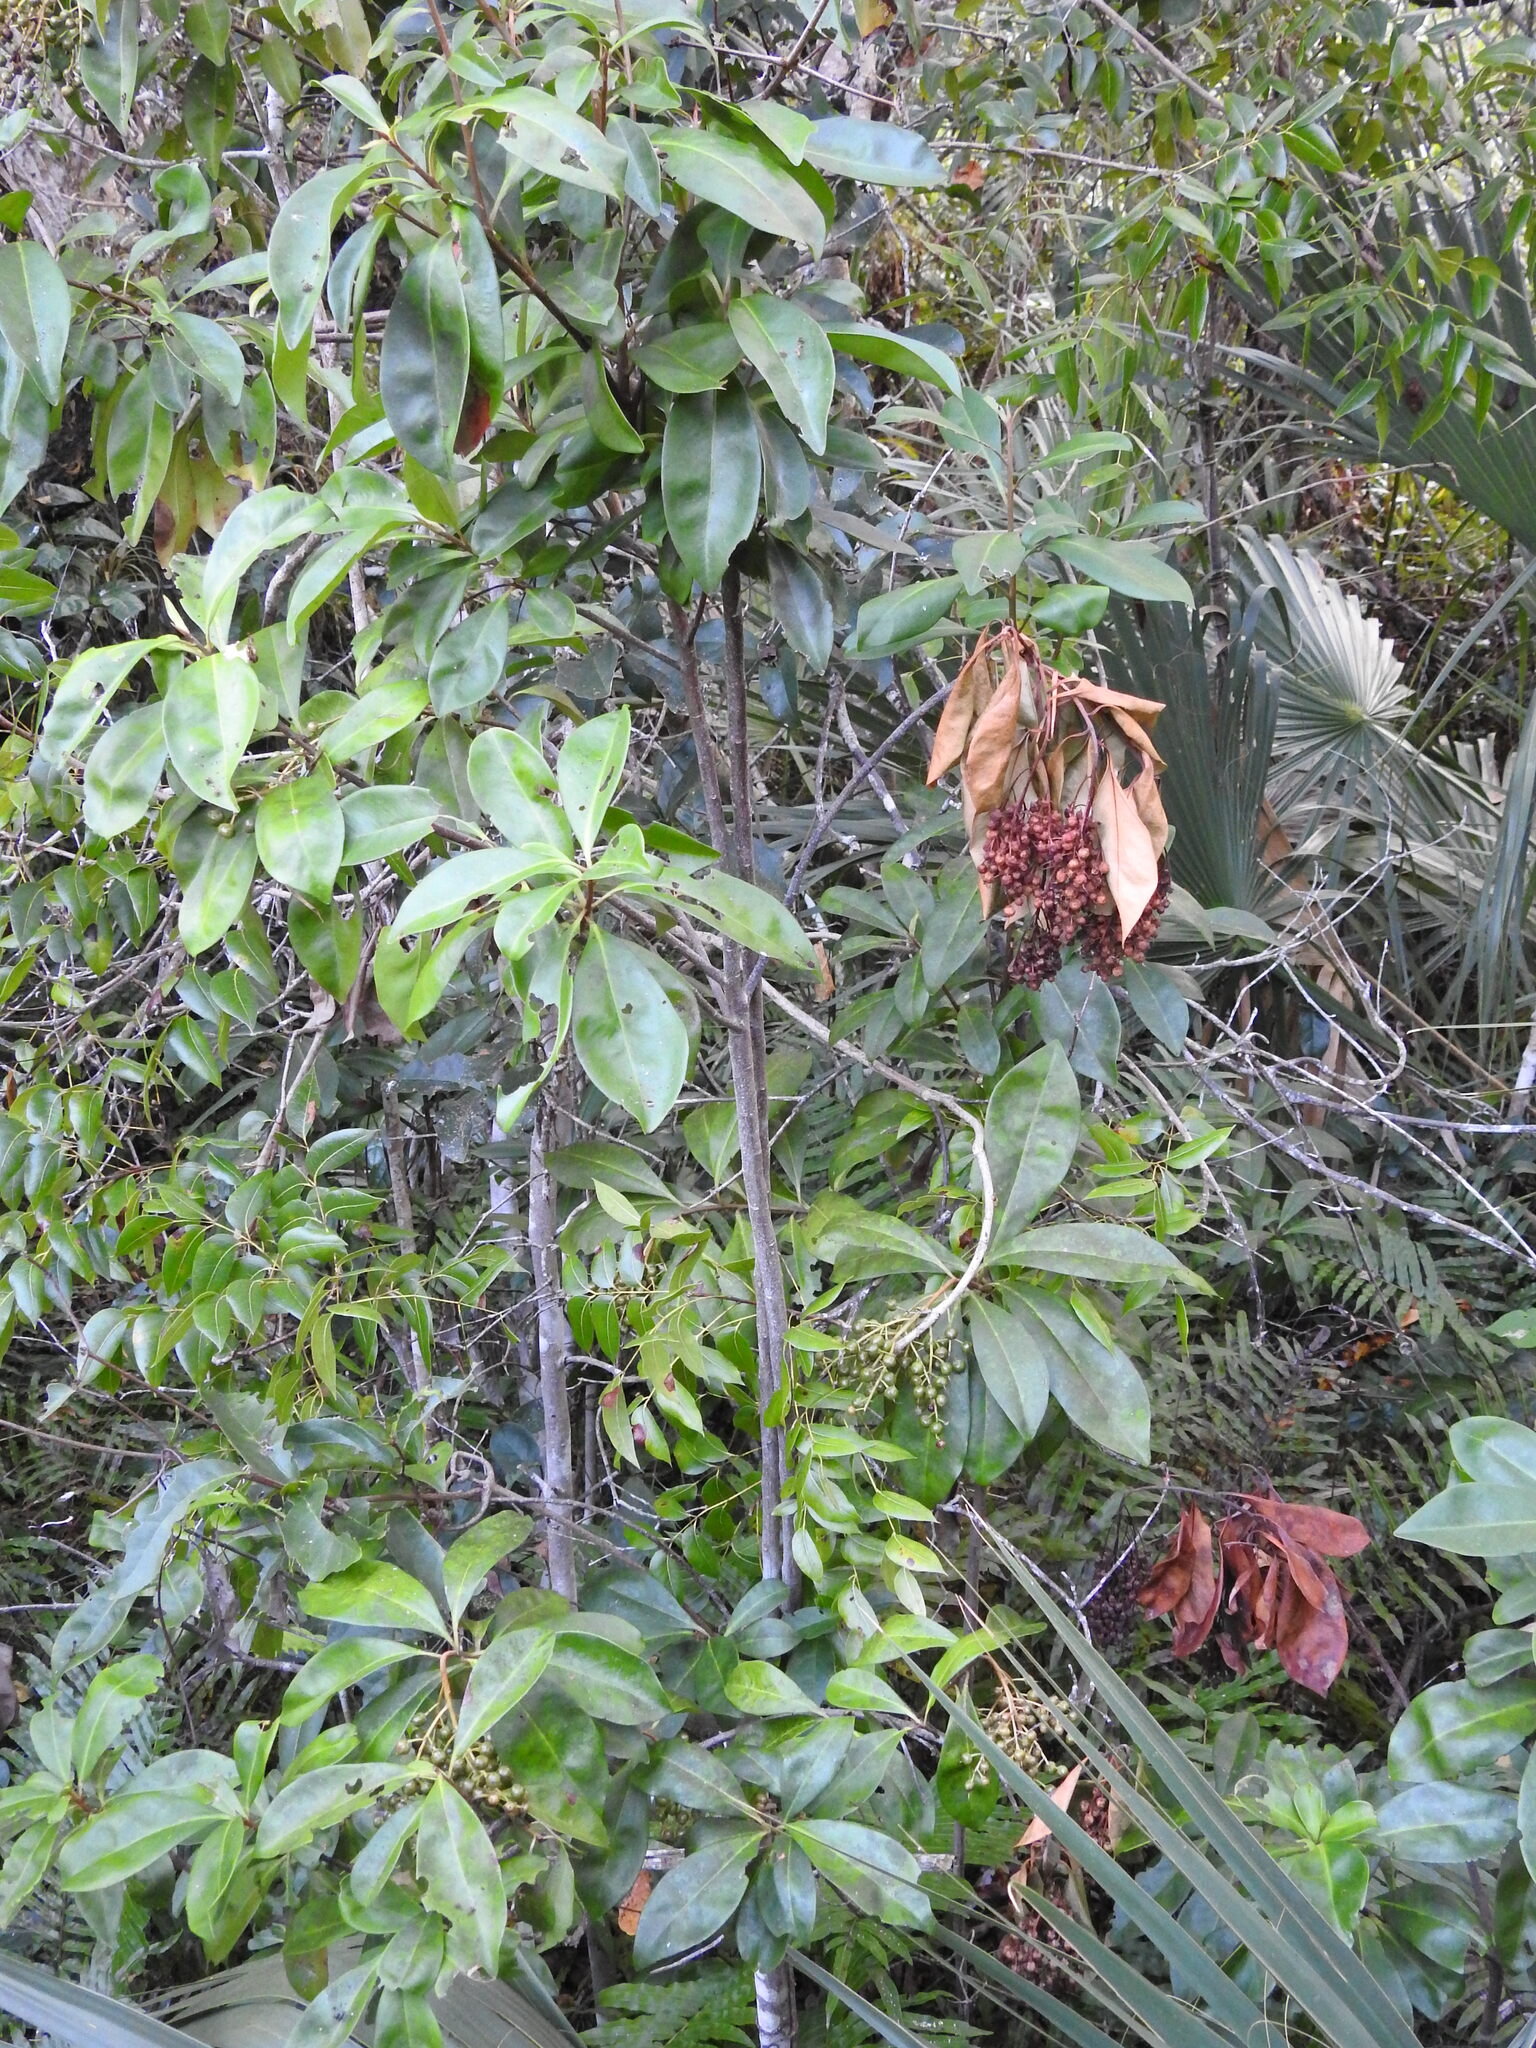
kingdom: Plantae
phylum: Tracheophyta
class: Magnoliopsida
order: Ericales
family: Primulaceae
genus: Ardisia
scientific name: Ardisia escallonioides
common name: Island marlberry
